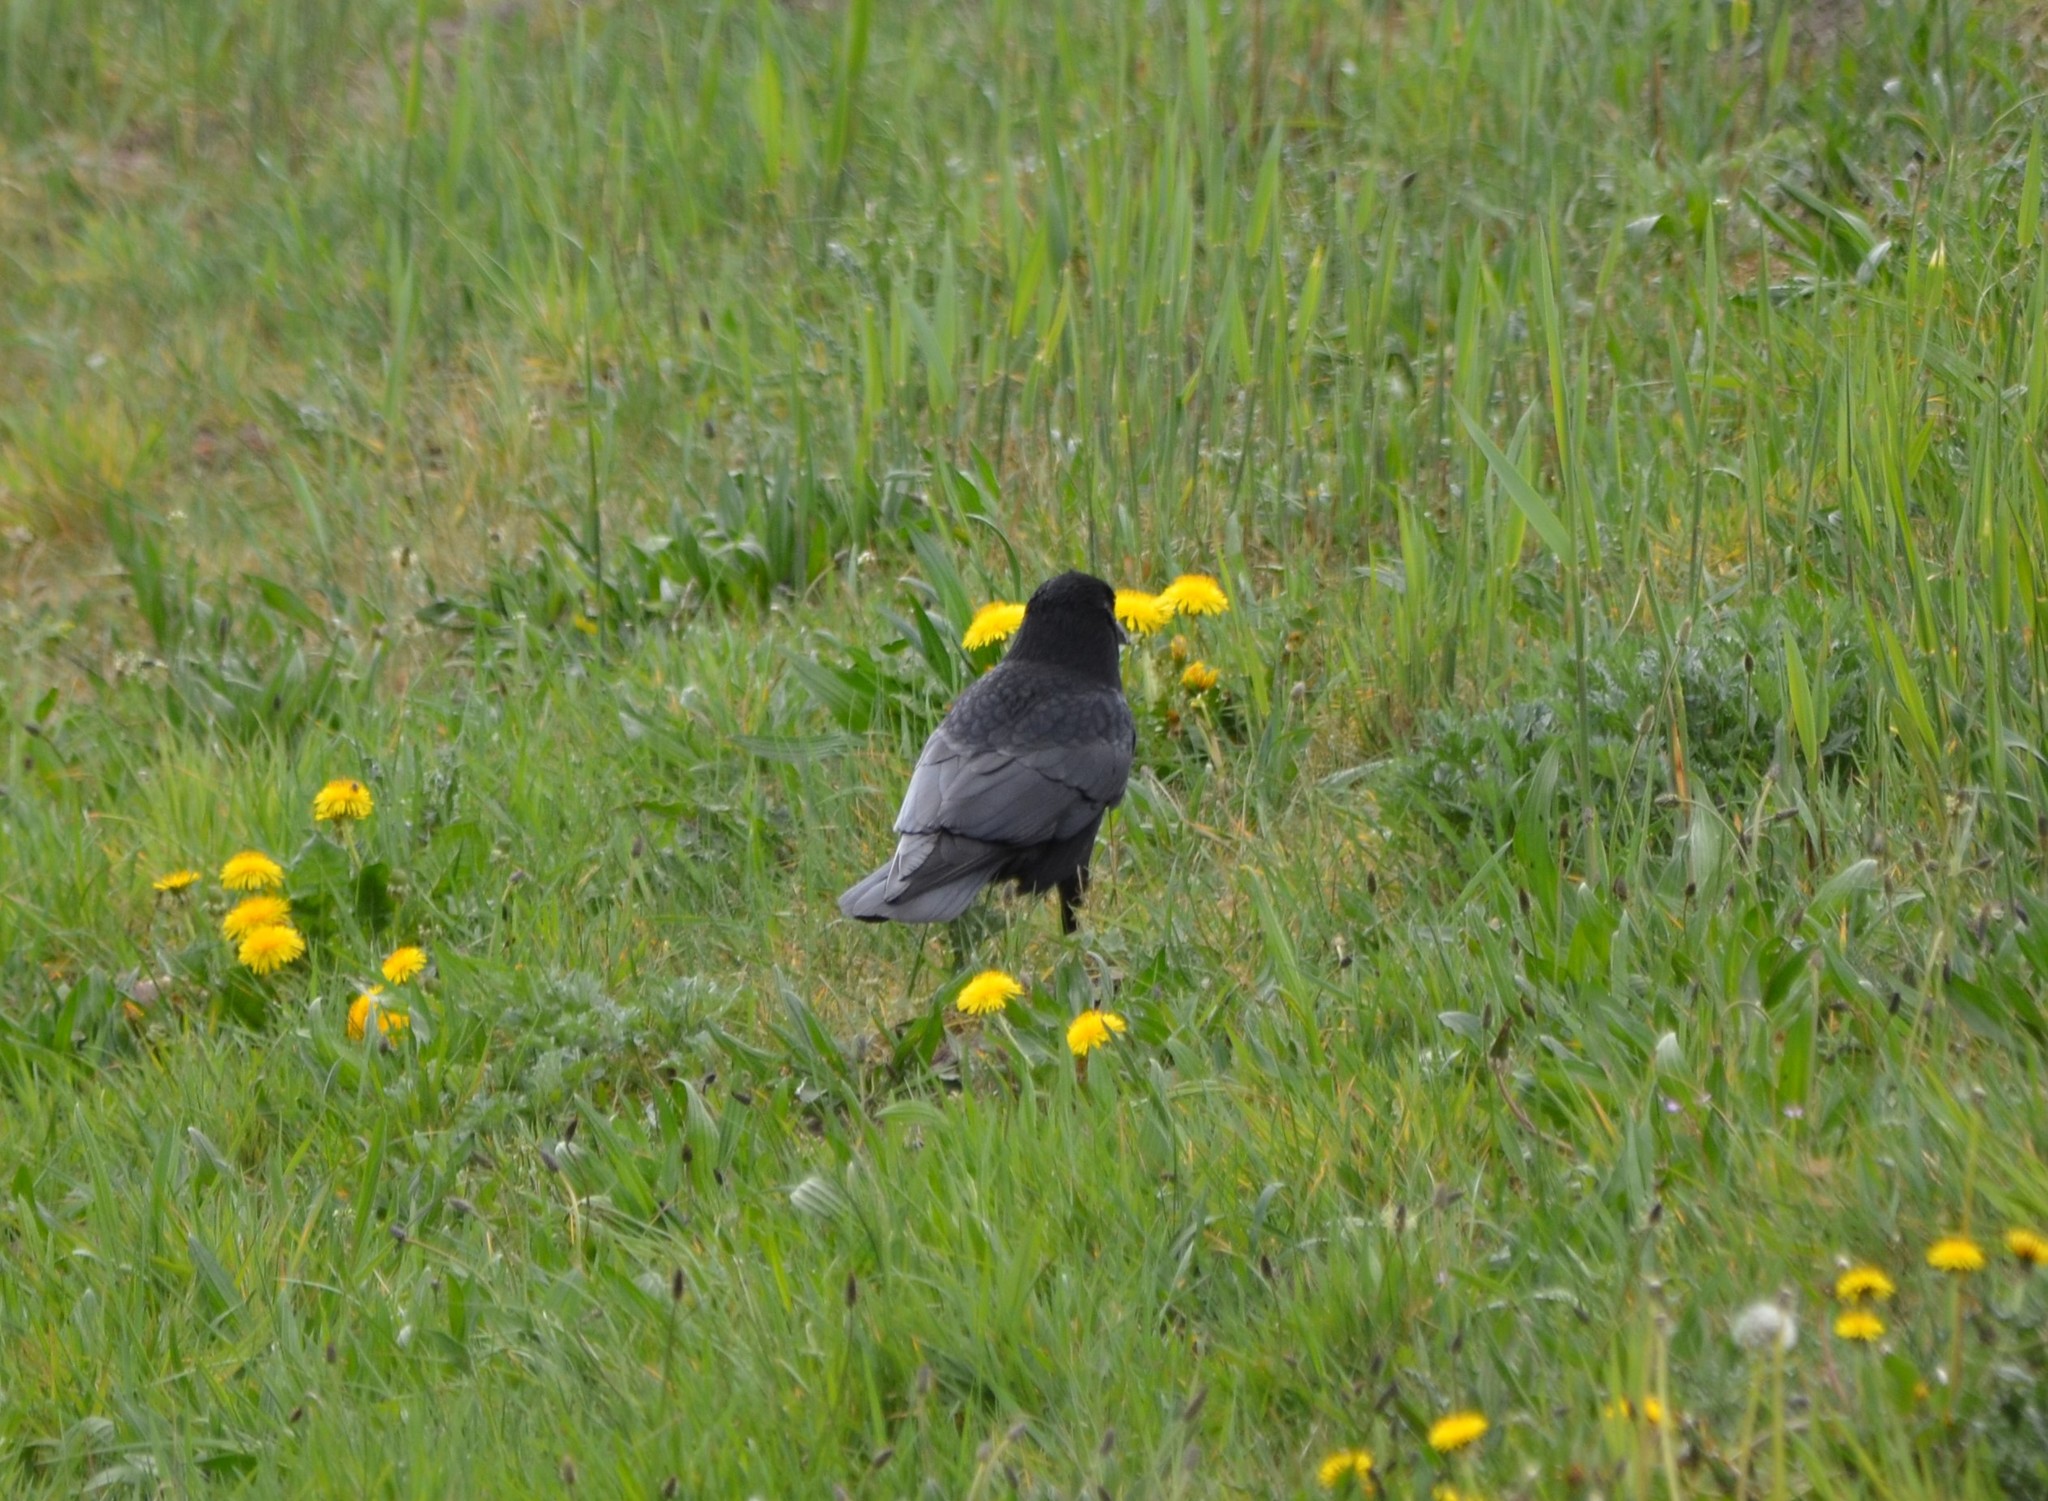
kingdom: Animalia
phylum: Chordata
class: Aves
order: Passeriformes
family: Corvidae
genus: Corvus
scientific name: Corvus corone
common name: Carrion crow
